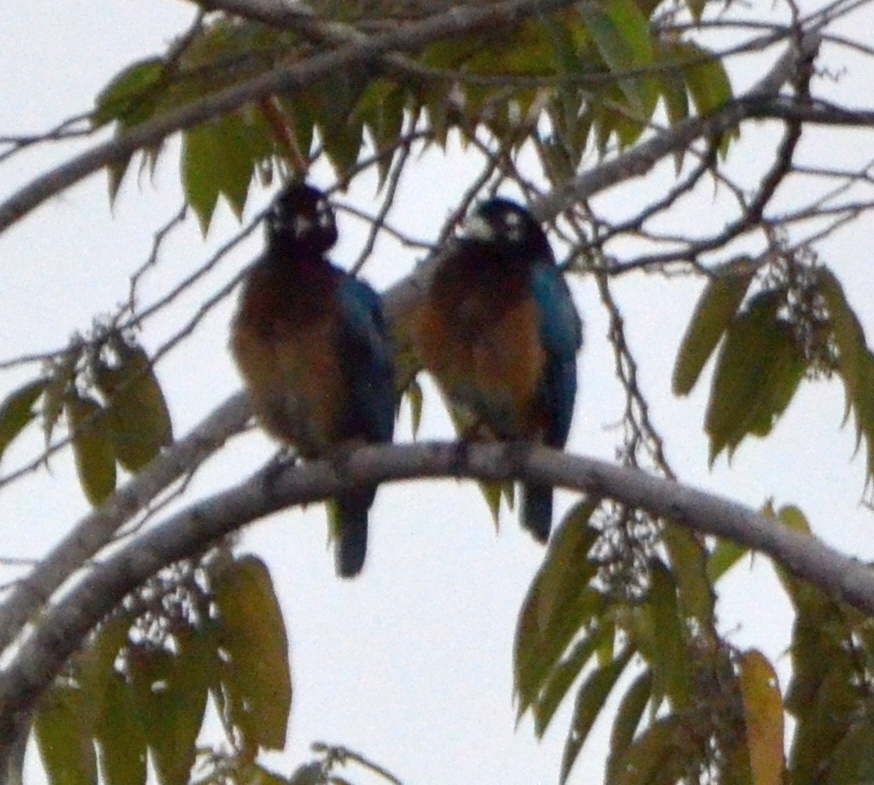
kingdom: Animalia
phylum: Chordata
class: Aves
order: Passeriformes
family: Paradisaeidae
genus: Paradisaea
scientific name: Paradisaea rudolphi
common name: Blue bird-of-paradise
